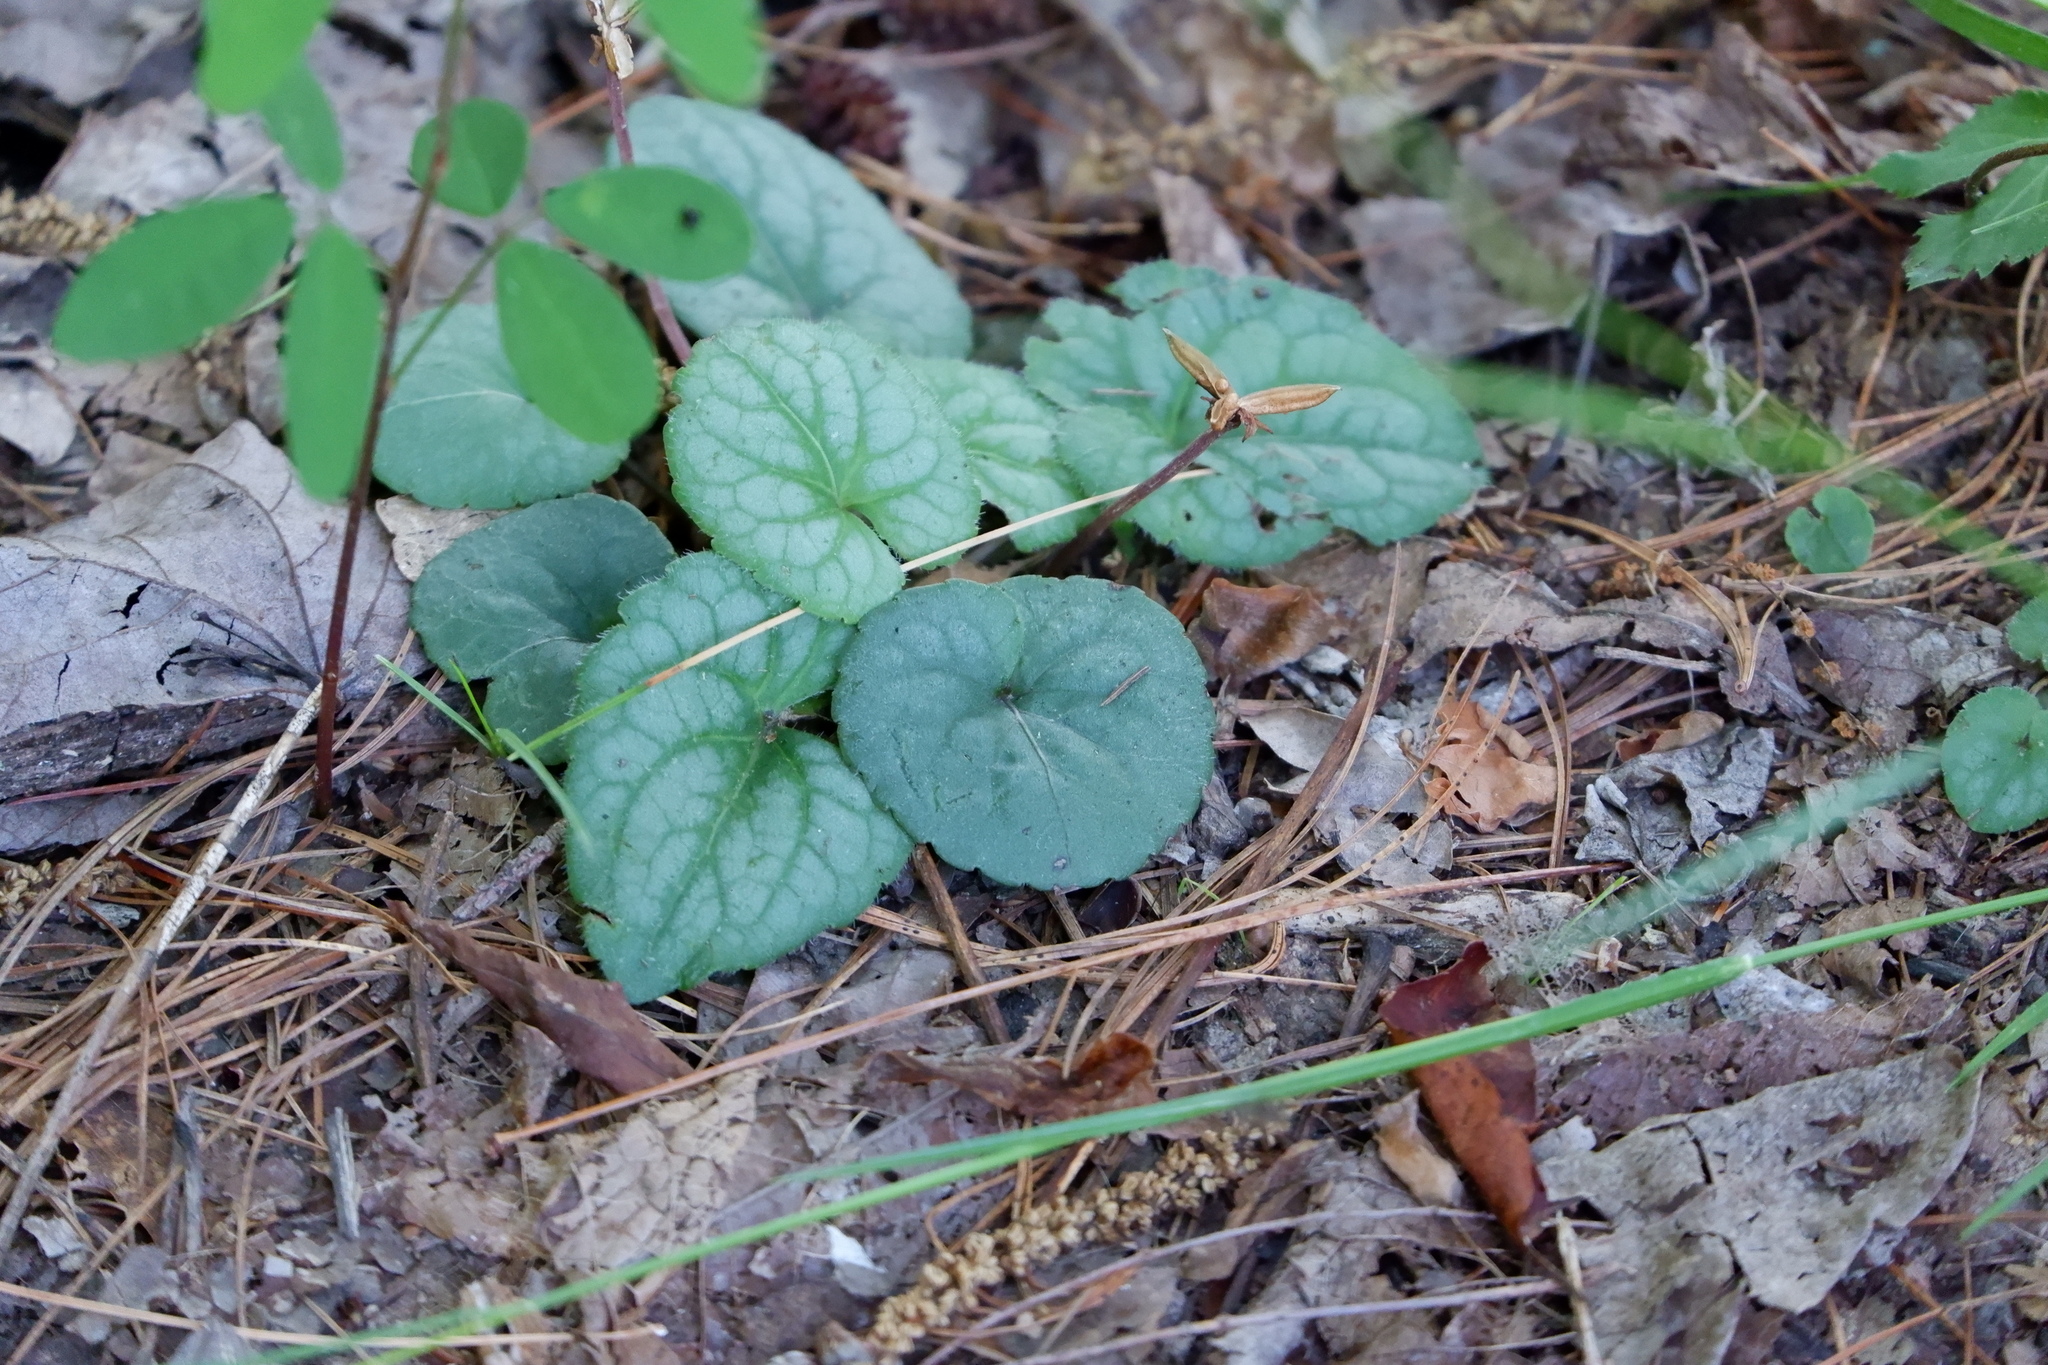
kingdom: Plantae
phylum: Tracheophyta
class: Magnoliopsida
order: Malpighiales
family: Violaceae
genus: Viola
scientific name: Viola hirsutula
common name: Southern wood violet
